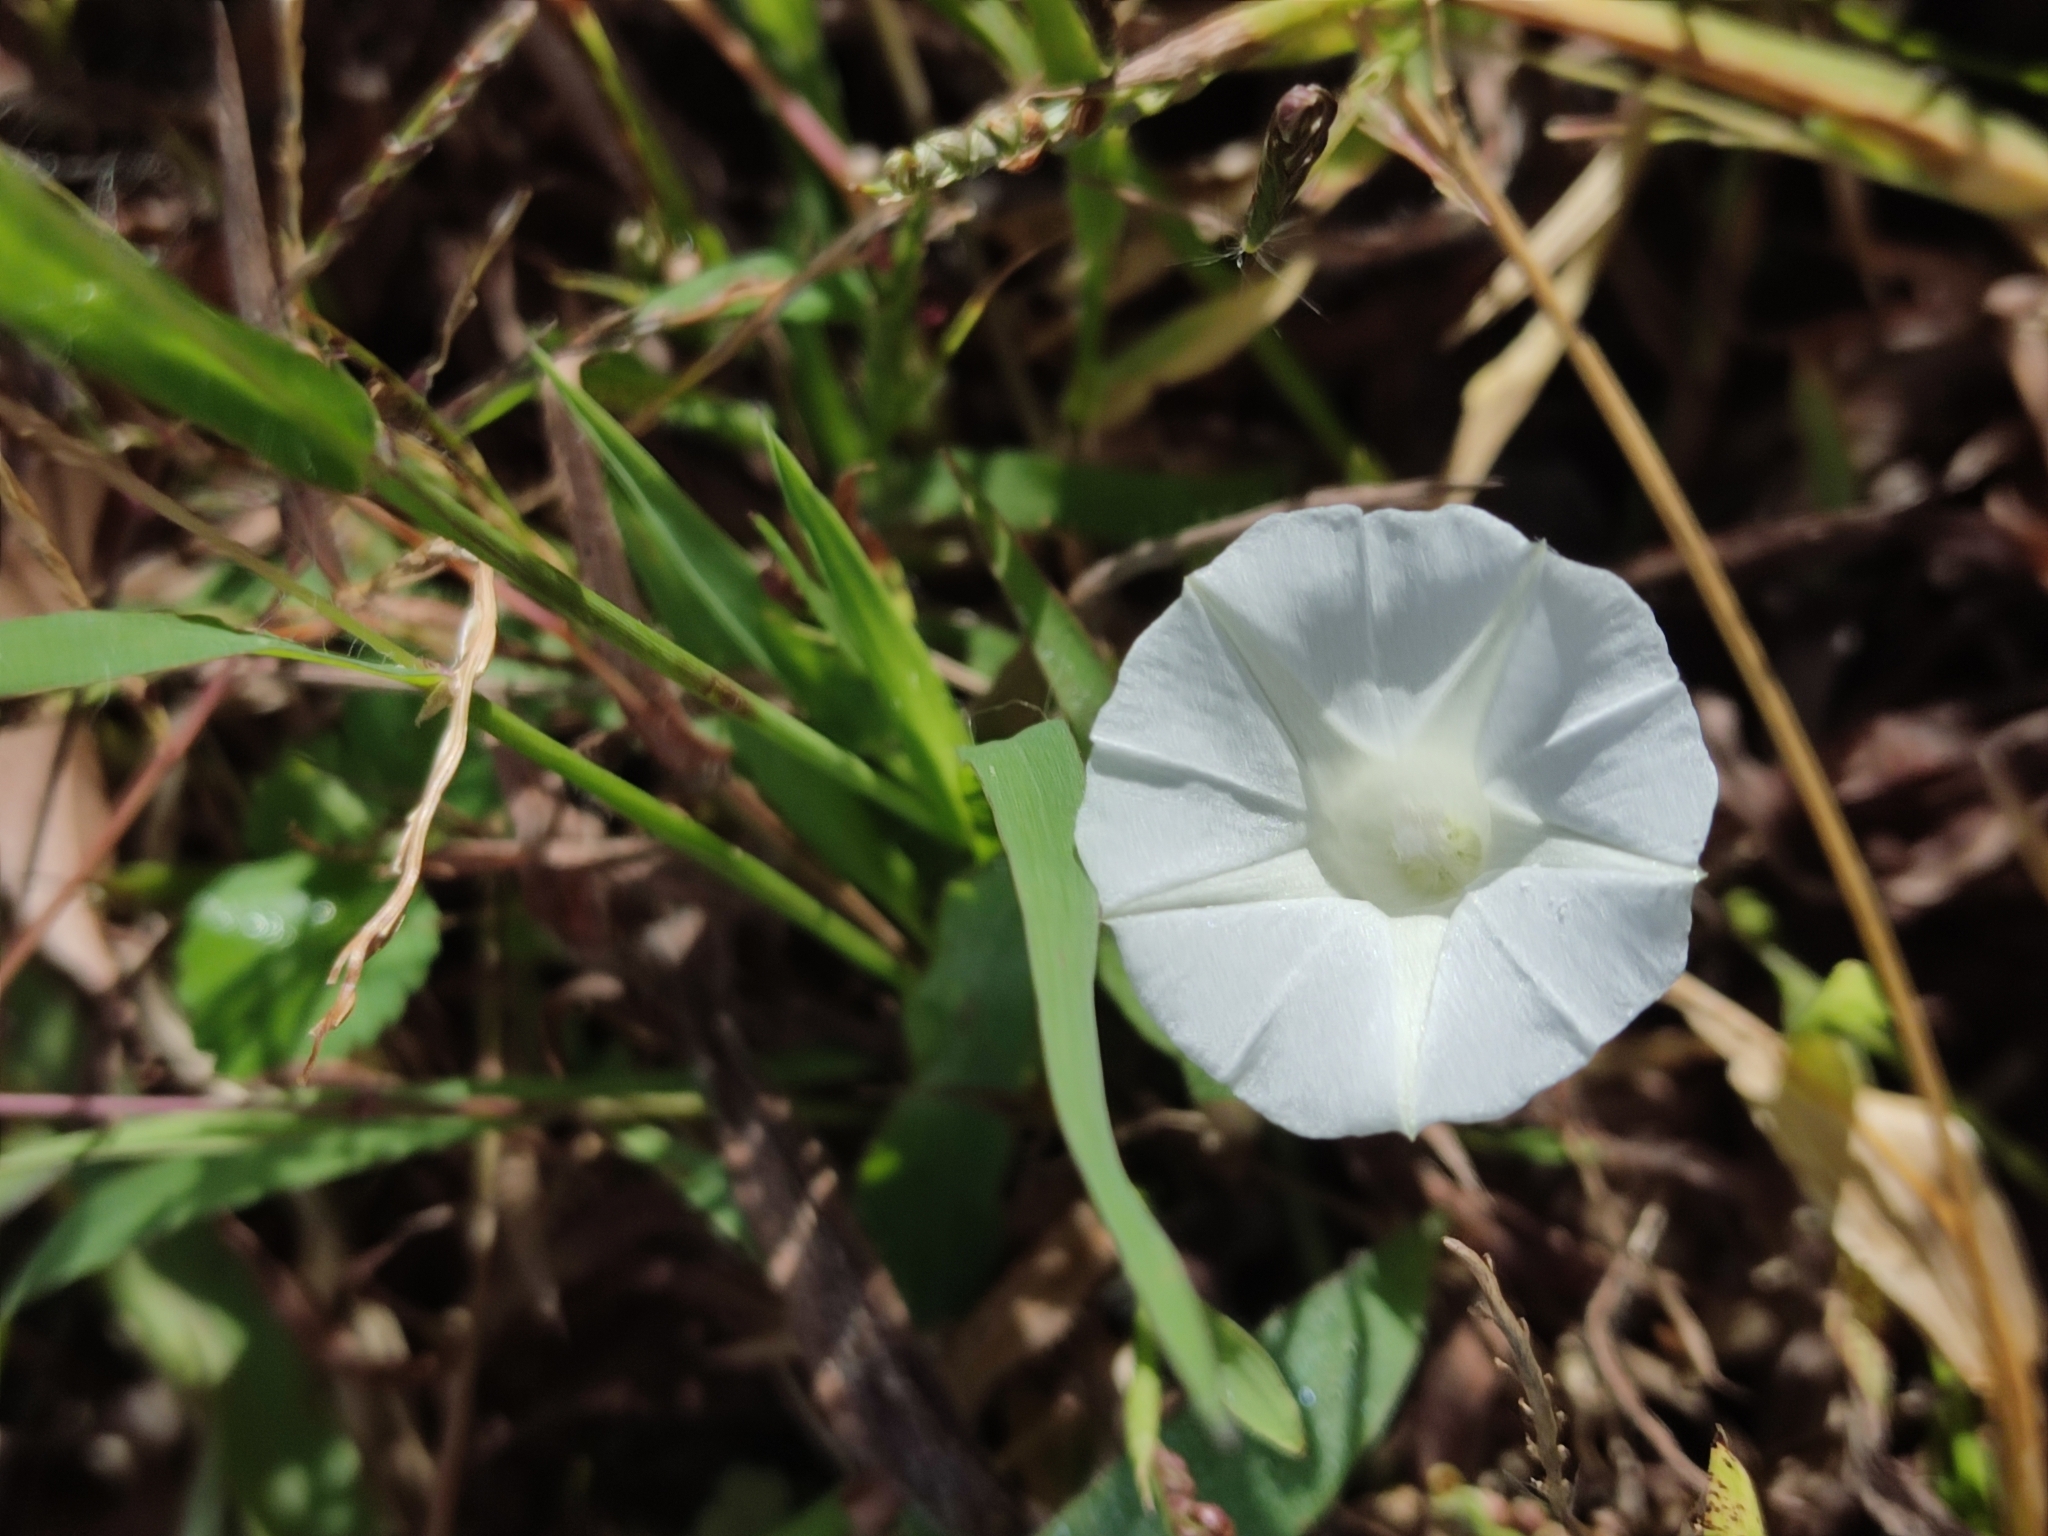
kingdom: Plantae
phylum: Tracheophyta
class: Magnoliopsida
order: Solanales
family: Convolvulaceae
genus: Ipomoea
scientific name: Ipomoea purpurea
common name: Common morning-glory
